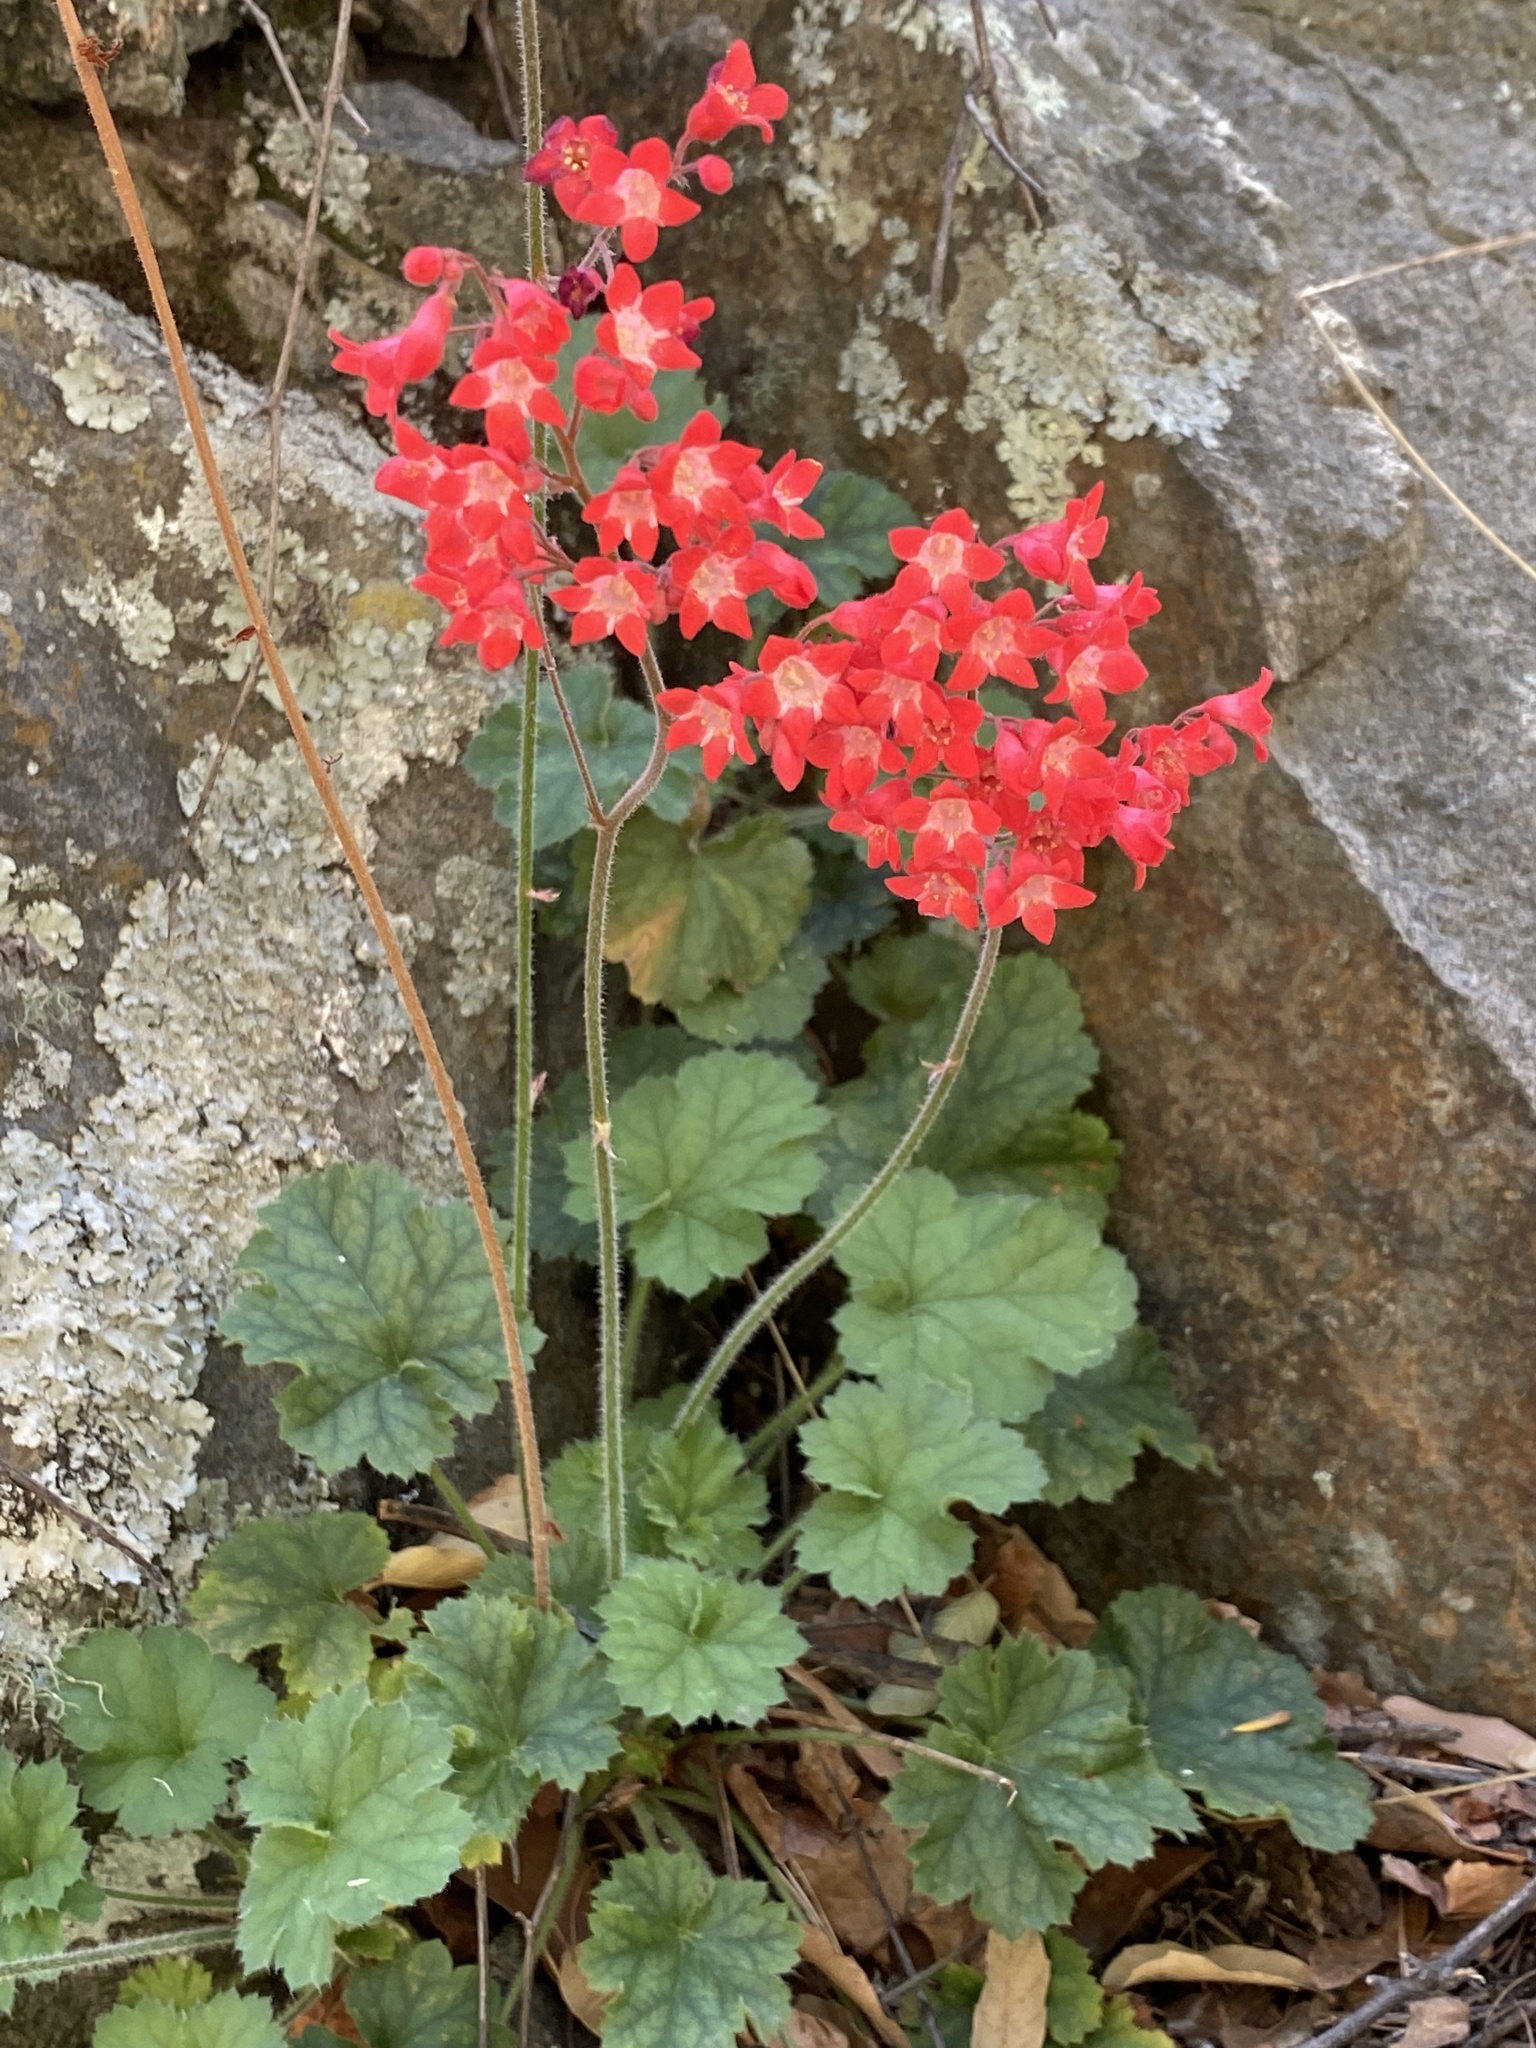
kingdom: Plantae
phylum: Tracheophyta
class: Magnoliopsida
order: Saxifragales
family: Saxifragaceae
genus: Heuchera
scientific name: Heuchera sanguinea
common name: Coralbells
